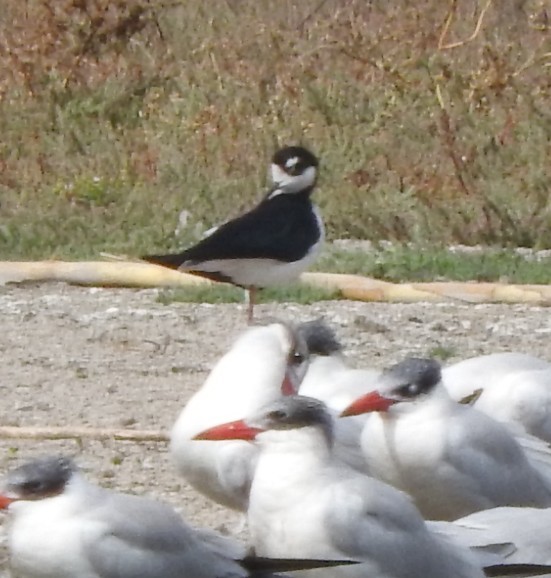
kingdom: Animalia
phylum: Chordata
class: Aves
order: Charadriiformes
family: Recurvirostridae
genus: Himantopus
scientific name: Himantopus mexicanus
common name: Black-necked stilt
